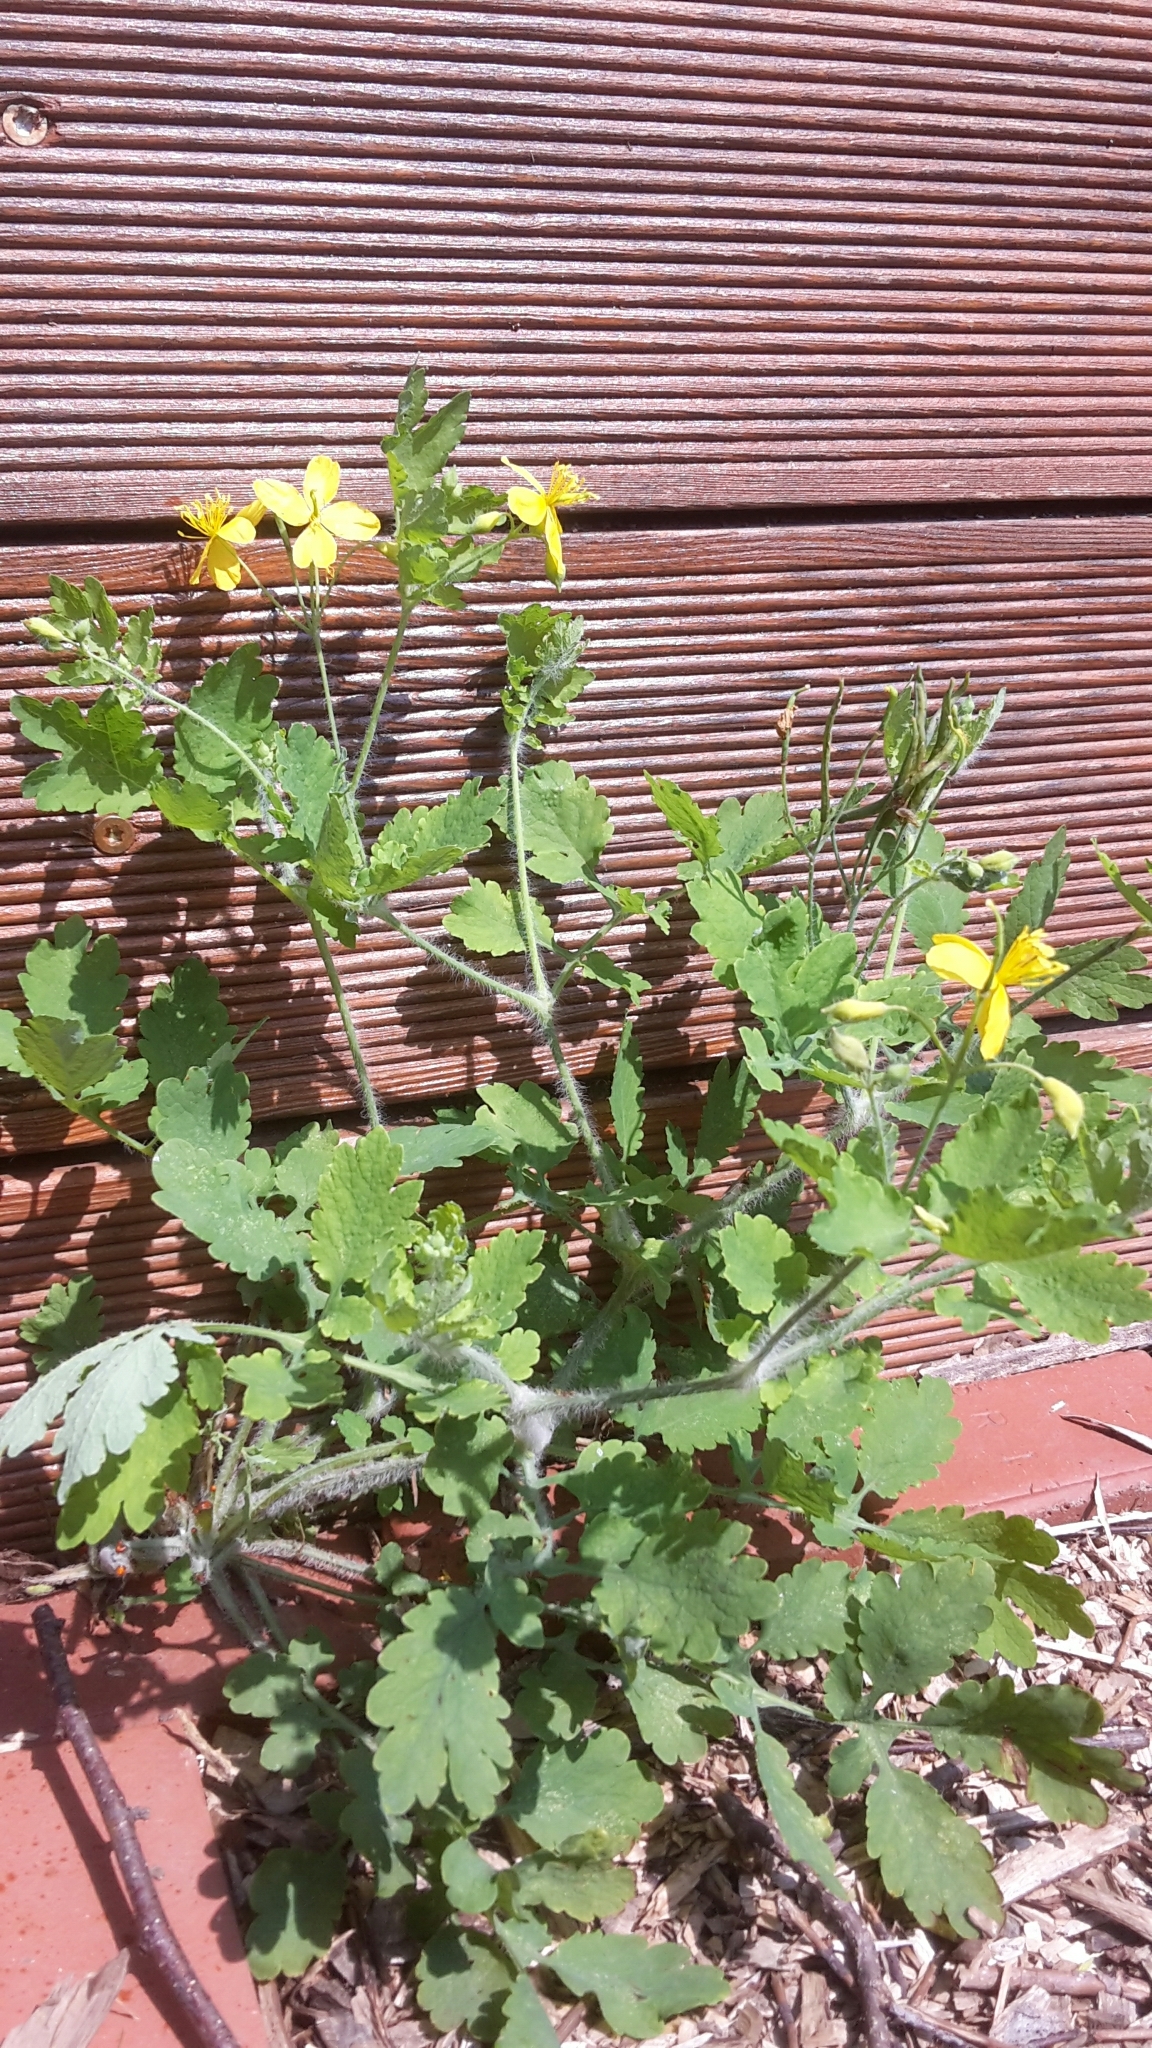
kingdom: Plantae
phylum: Tracheophyta
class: Magnoliopsida
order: Ranunculales
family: Papaveraceae
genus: Chelidonium
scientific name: Chelidonium majus
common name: Greater celandine
